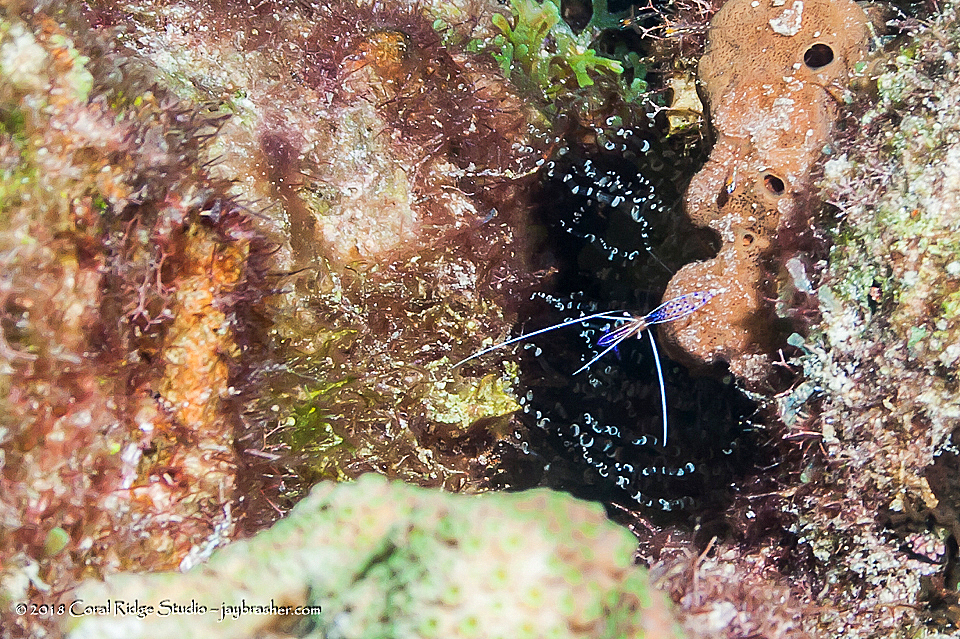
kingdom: Animalia
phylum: Arthropoda
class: Malacostraca
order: Decapoda
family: Palaemonidae
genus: Ancylomenes
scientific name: Ancylomenes pedersoni
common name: Pederson's cleaning shrimp
